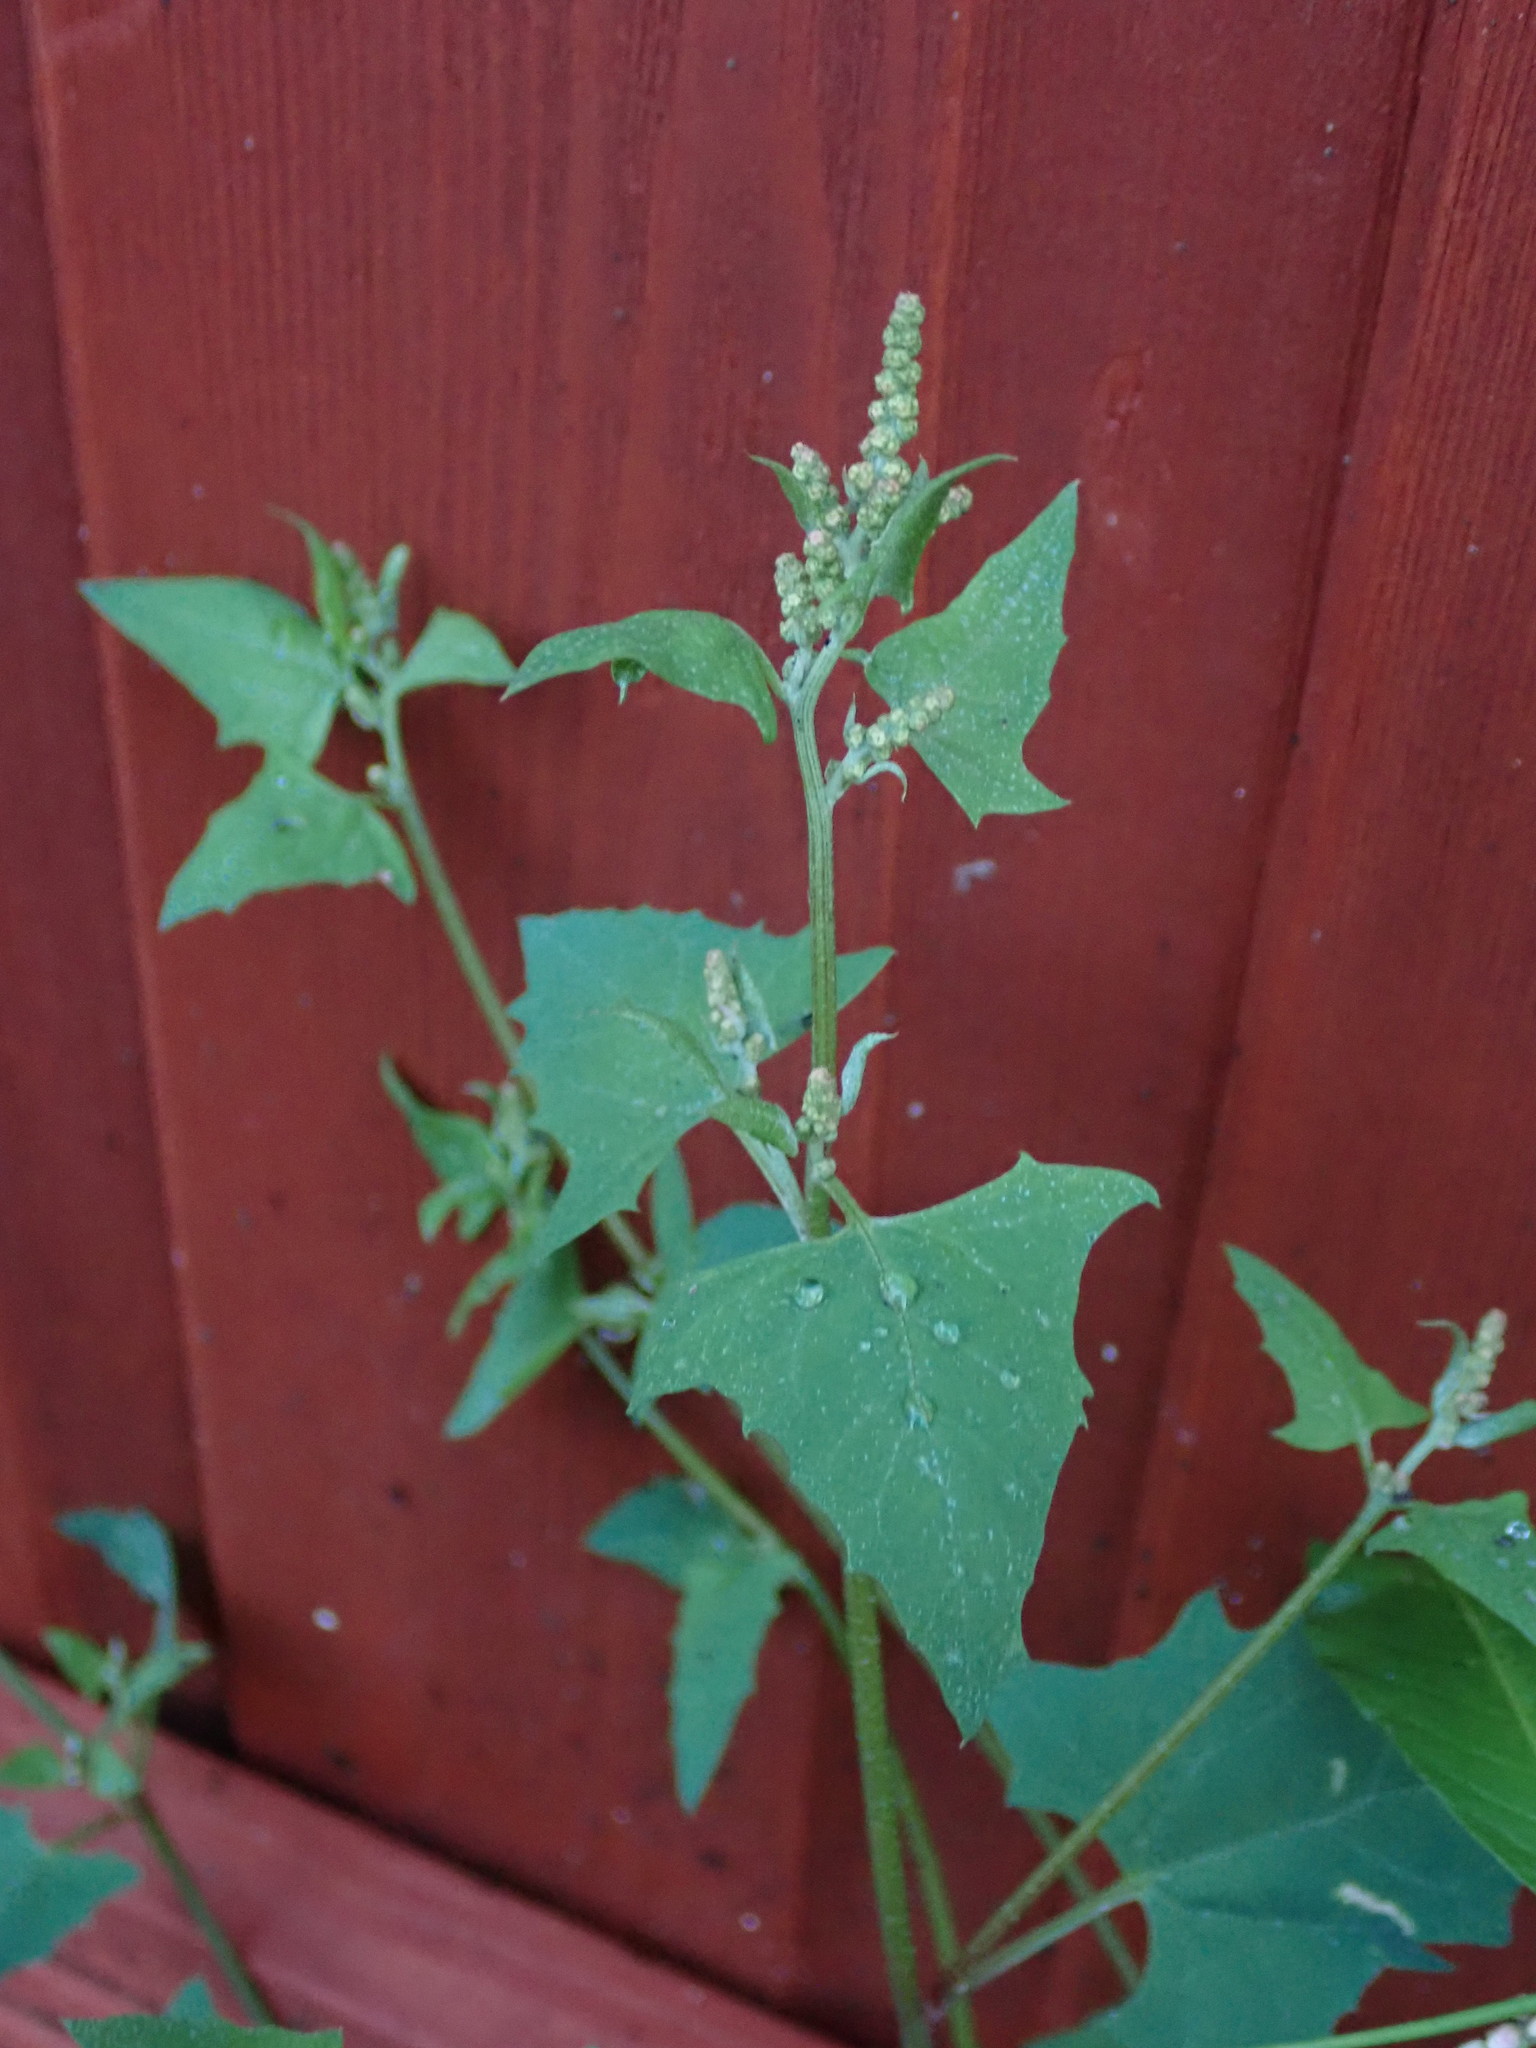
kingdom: Plantae
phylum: Tracheophyta
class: Magnoliopsida
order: Caryophyllales
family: Amaranthaceae
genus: Atriplex
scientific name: Atriplex prostrata
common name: Spear-leaved orache
